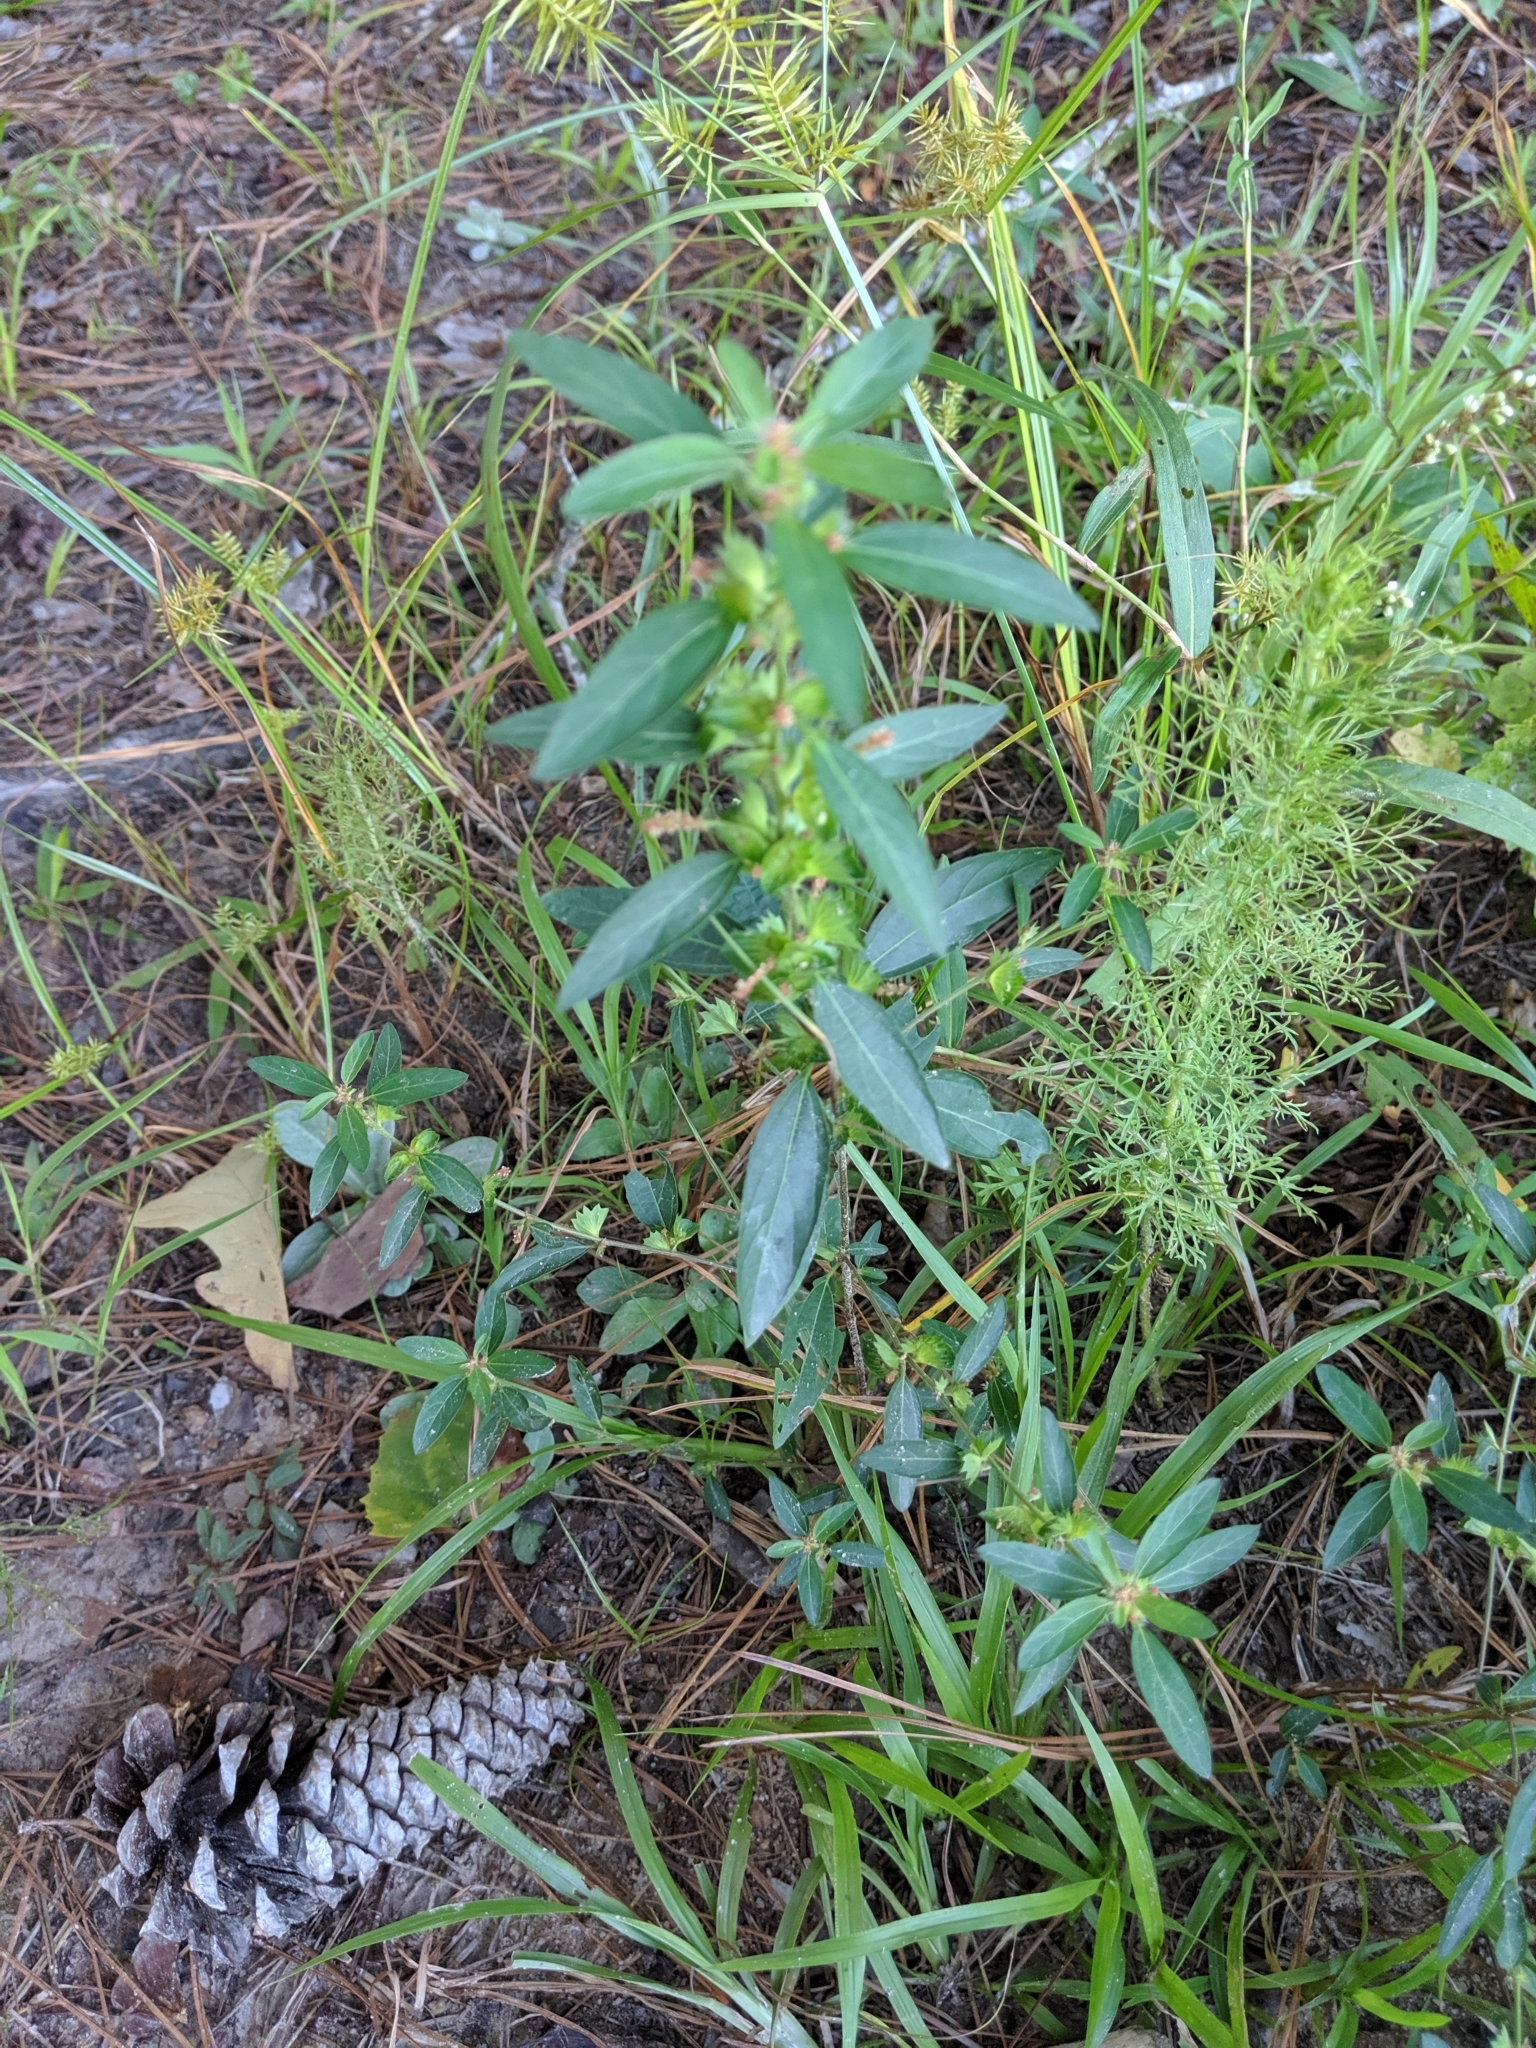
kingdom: Plantae
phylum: Tracheophyta
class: Magnoliopsida
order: Malpighiales
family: Euphorbiaceae
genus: Acalypha
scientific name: Acalypha gracilens
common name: Slender three-seeded mercury
